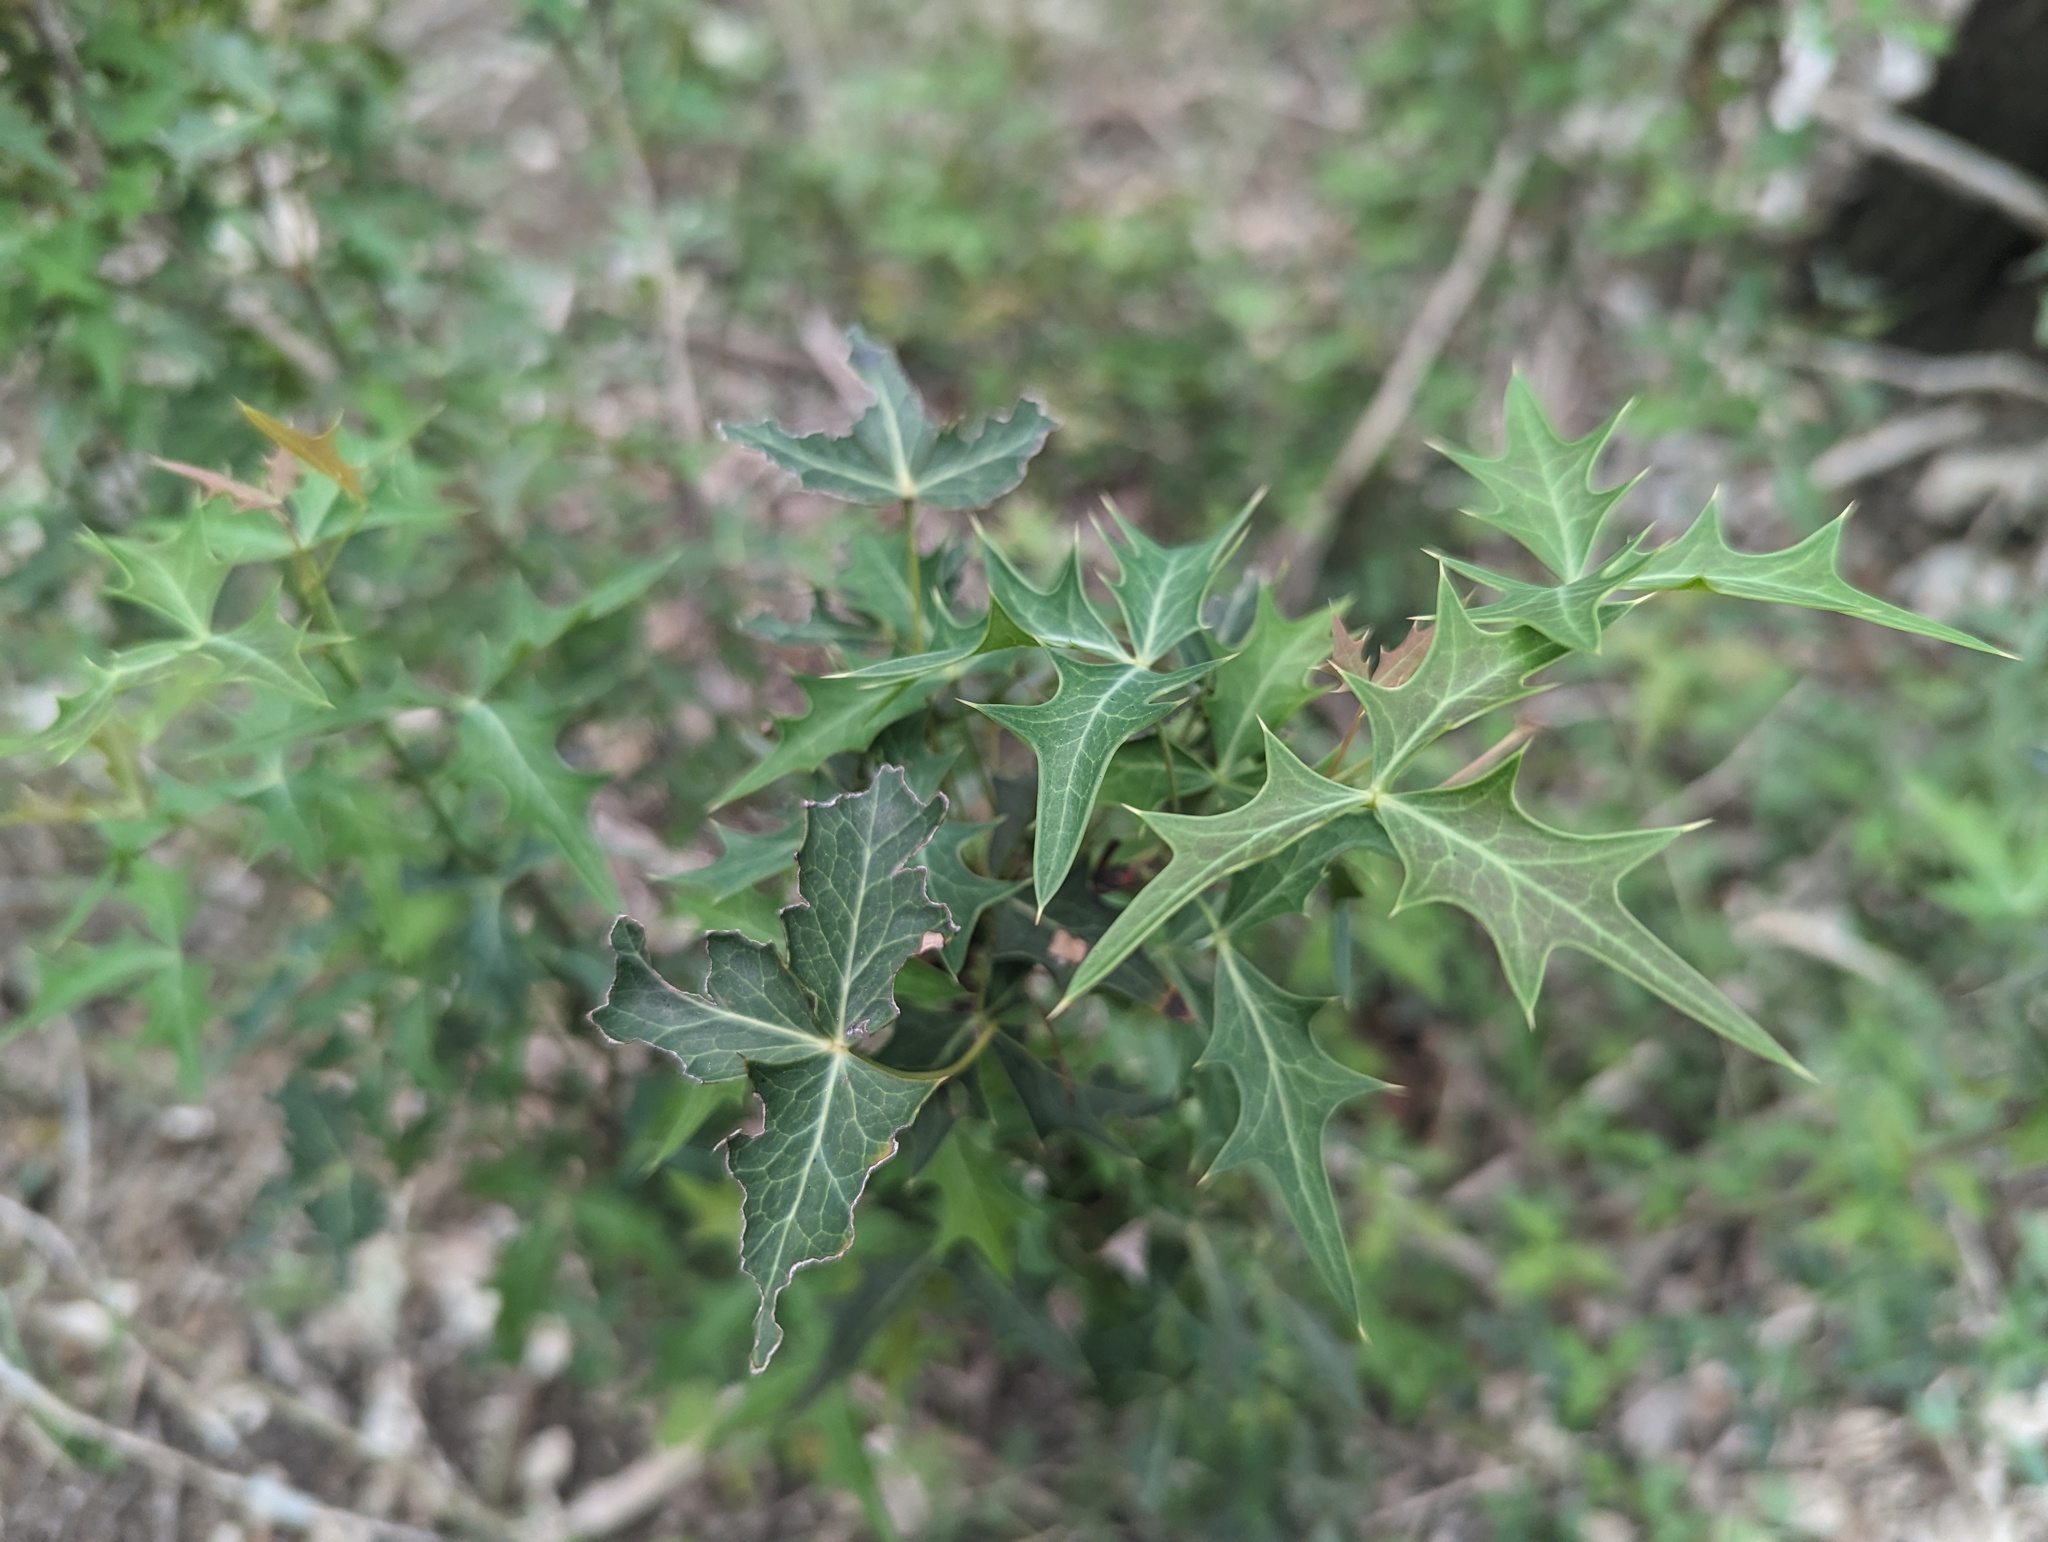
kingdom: Plantae
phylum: Tracheophyta
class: Magnoliopsida
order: Ranunculales
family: Berberidaceae
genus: Alloberberis
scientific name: Alloberberis trifoliolata
